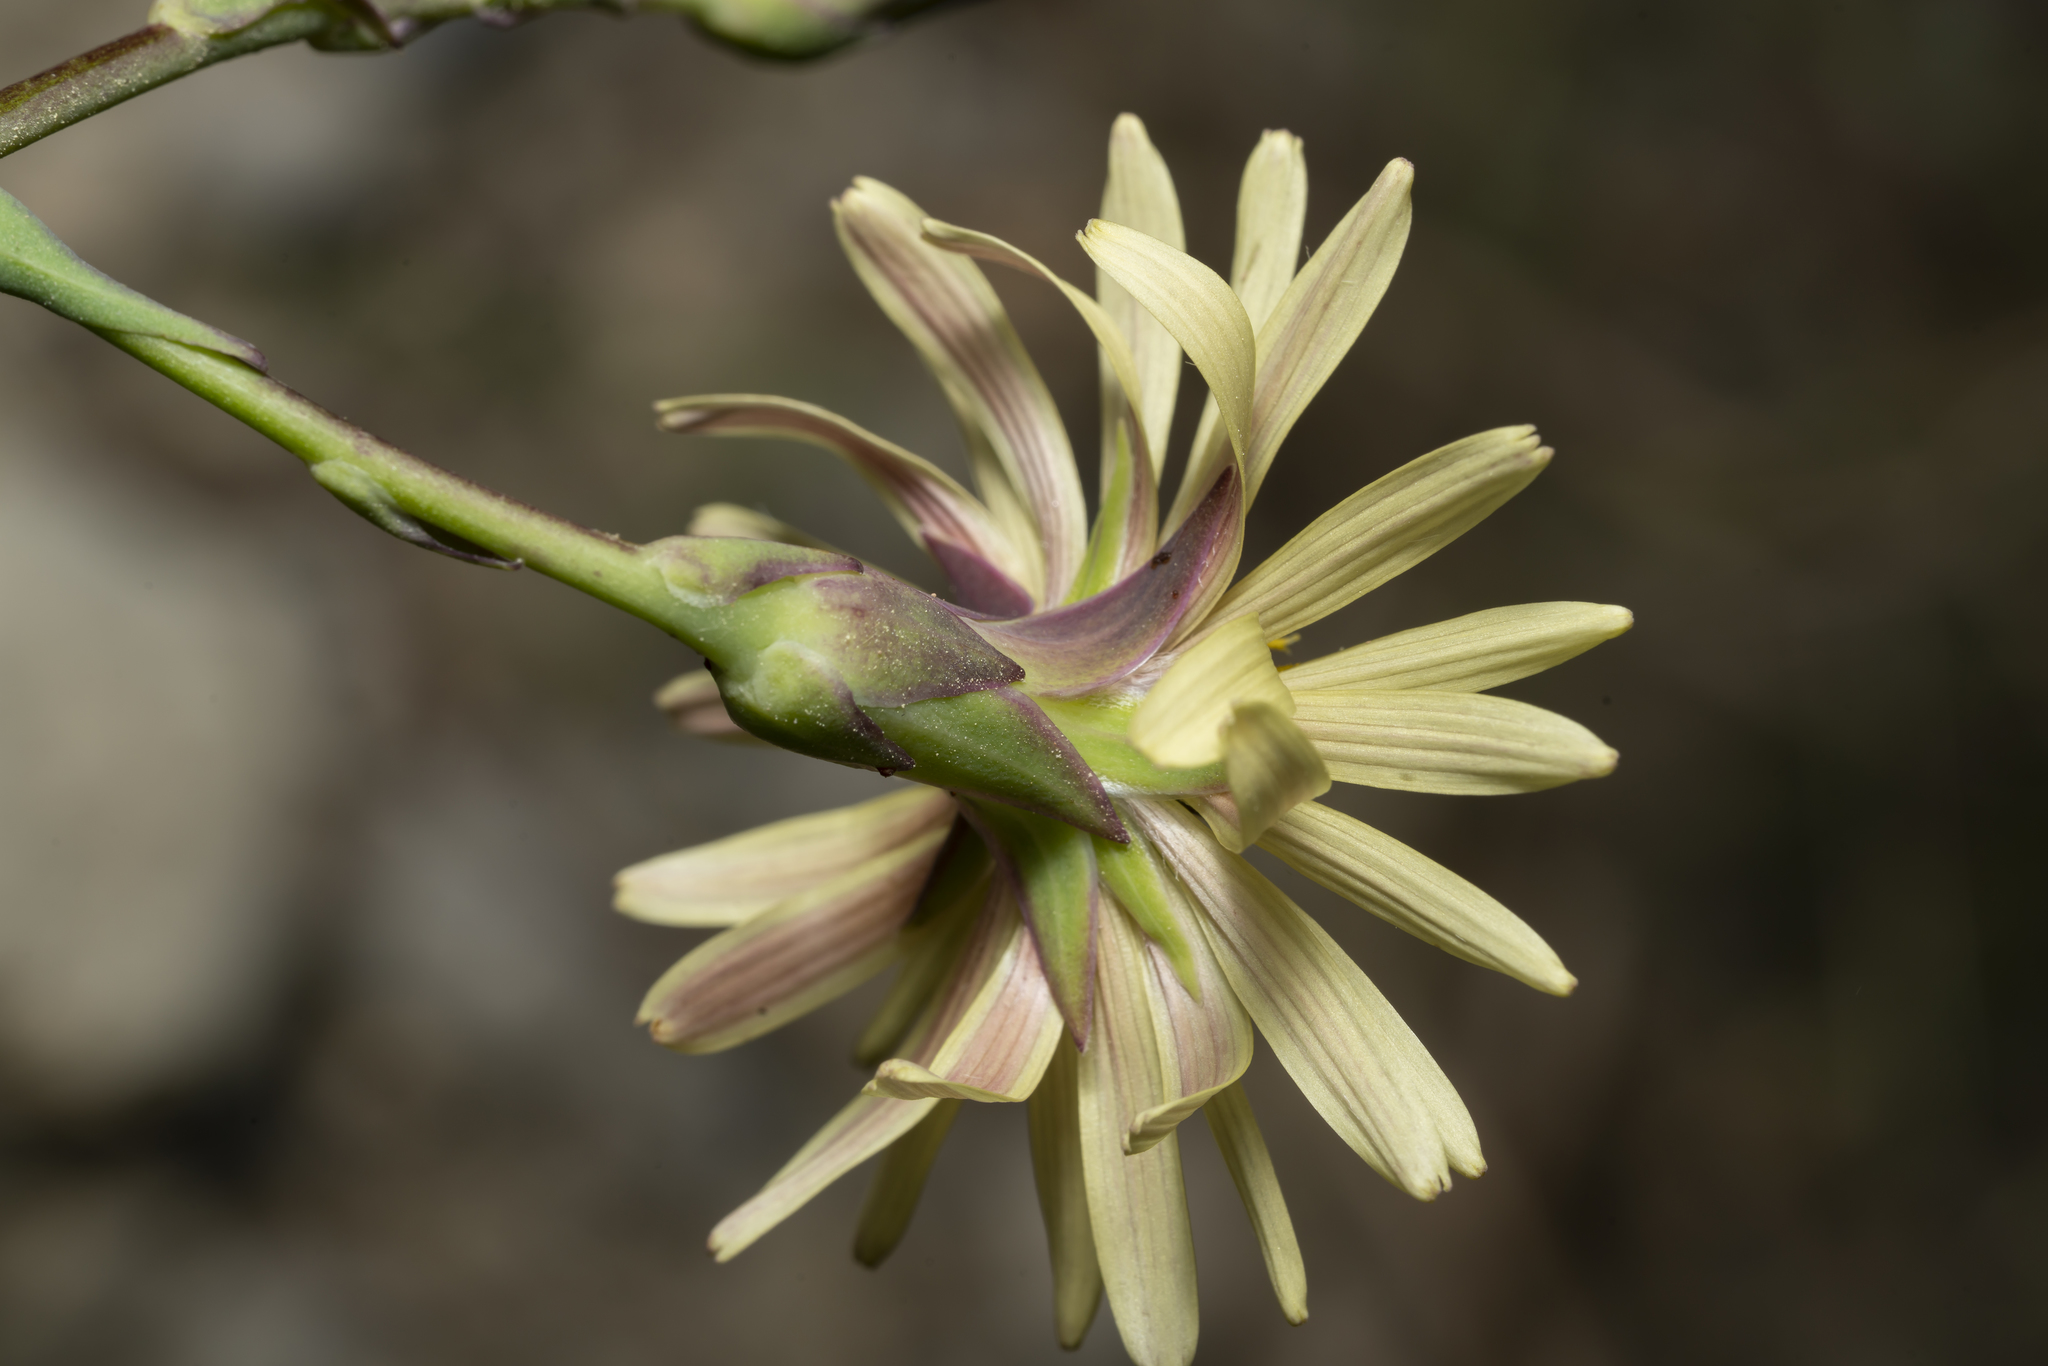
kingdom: Plantae
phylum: Tracheophyta
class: Magnoliopsida
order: Asterales
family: Asteraceae
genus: Lactuca
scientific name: Lactuca tuberosa
